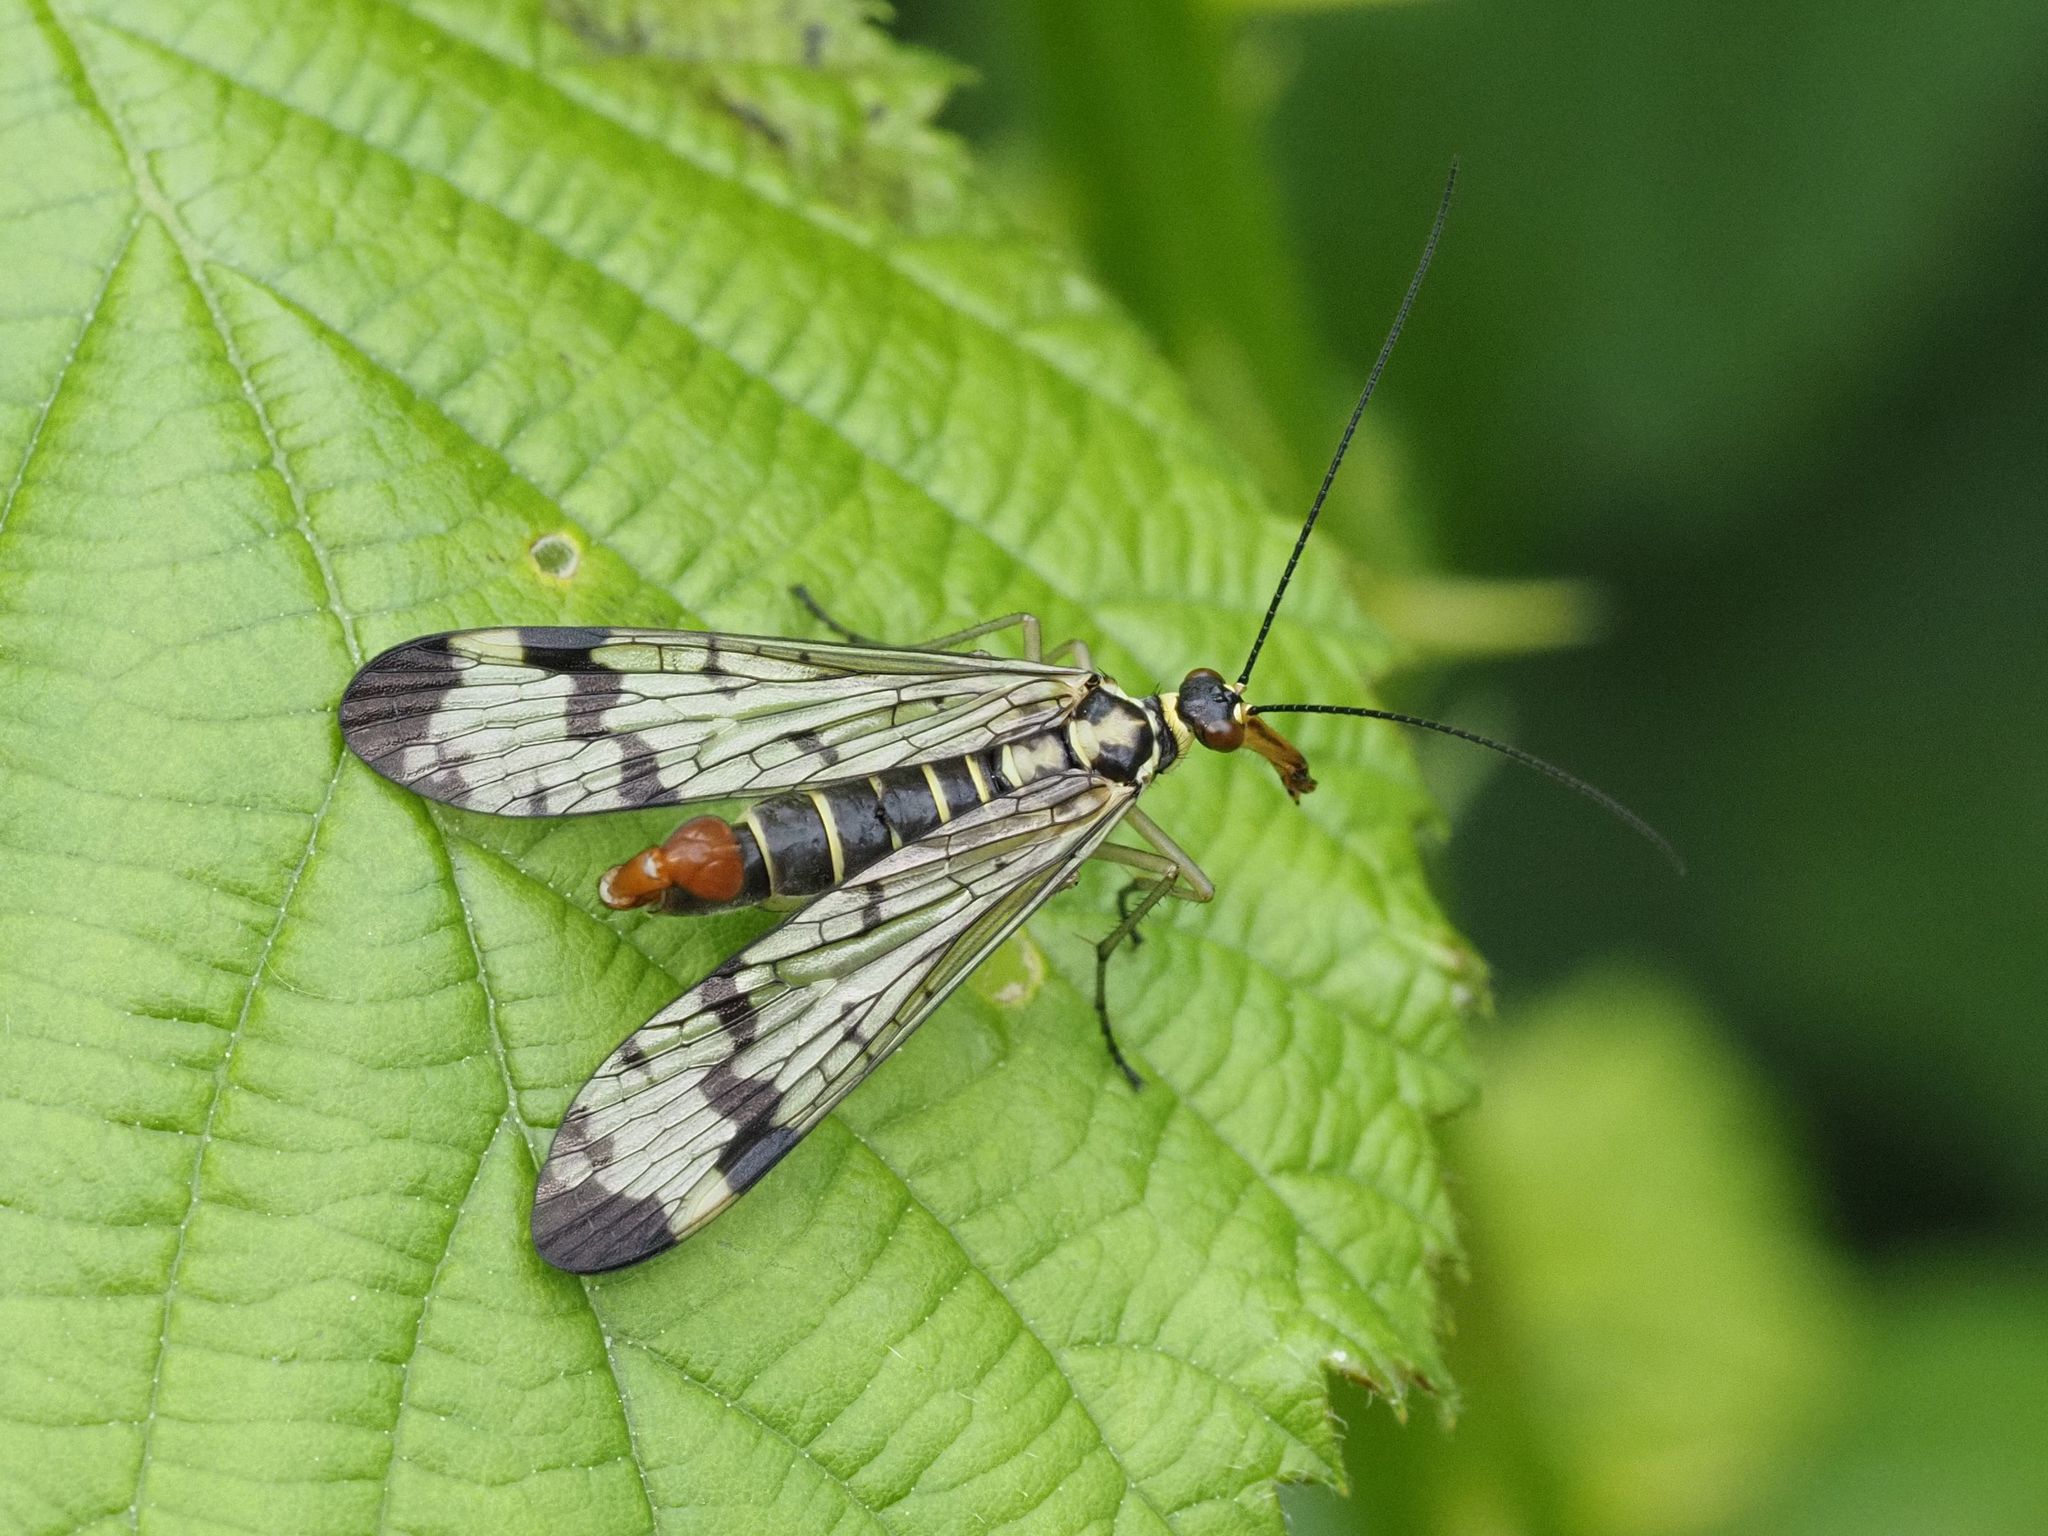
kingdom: Animalia
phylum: Arthropoda
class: Insecta
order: Mecoptera
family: Panorpidae
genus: Panorpa
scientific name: Panorpa communis
